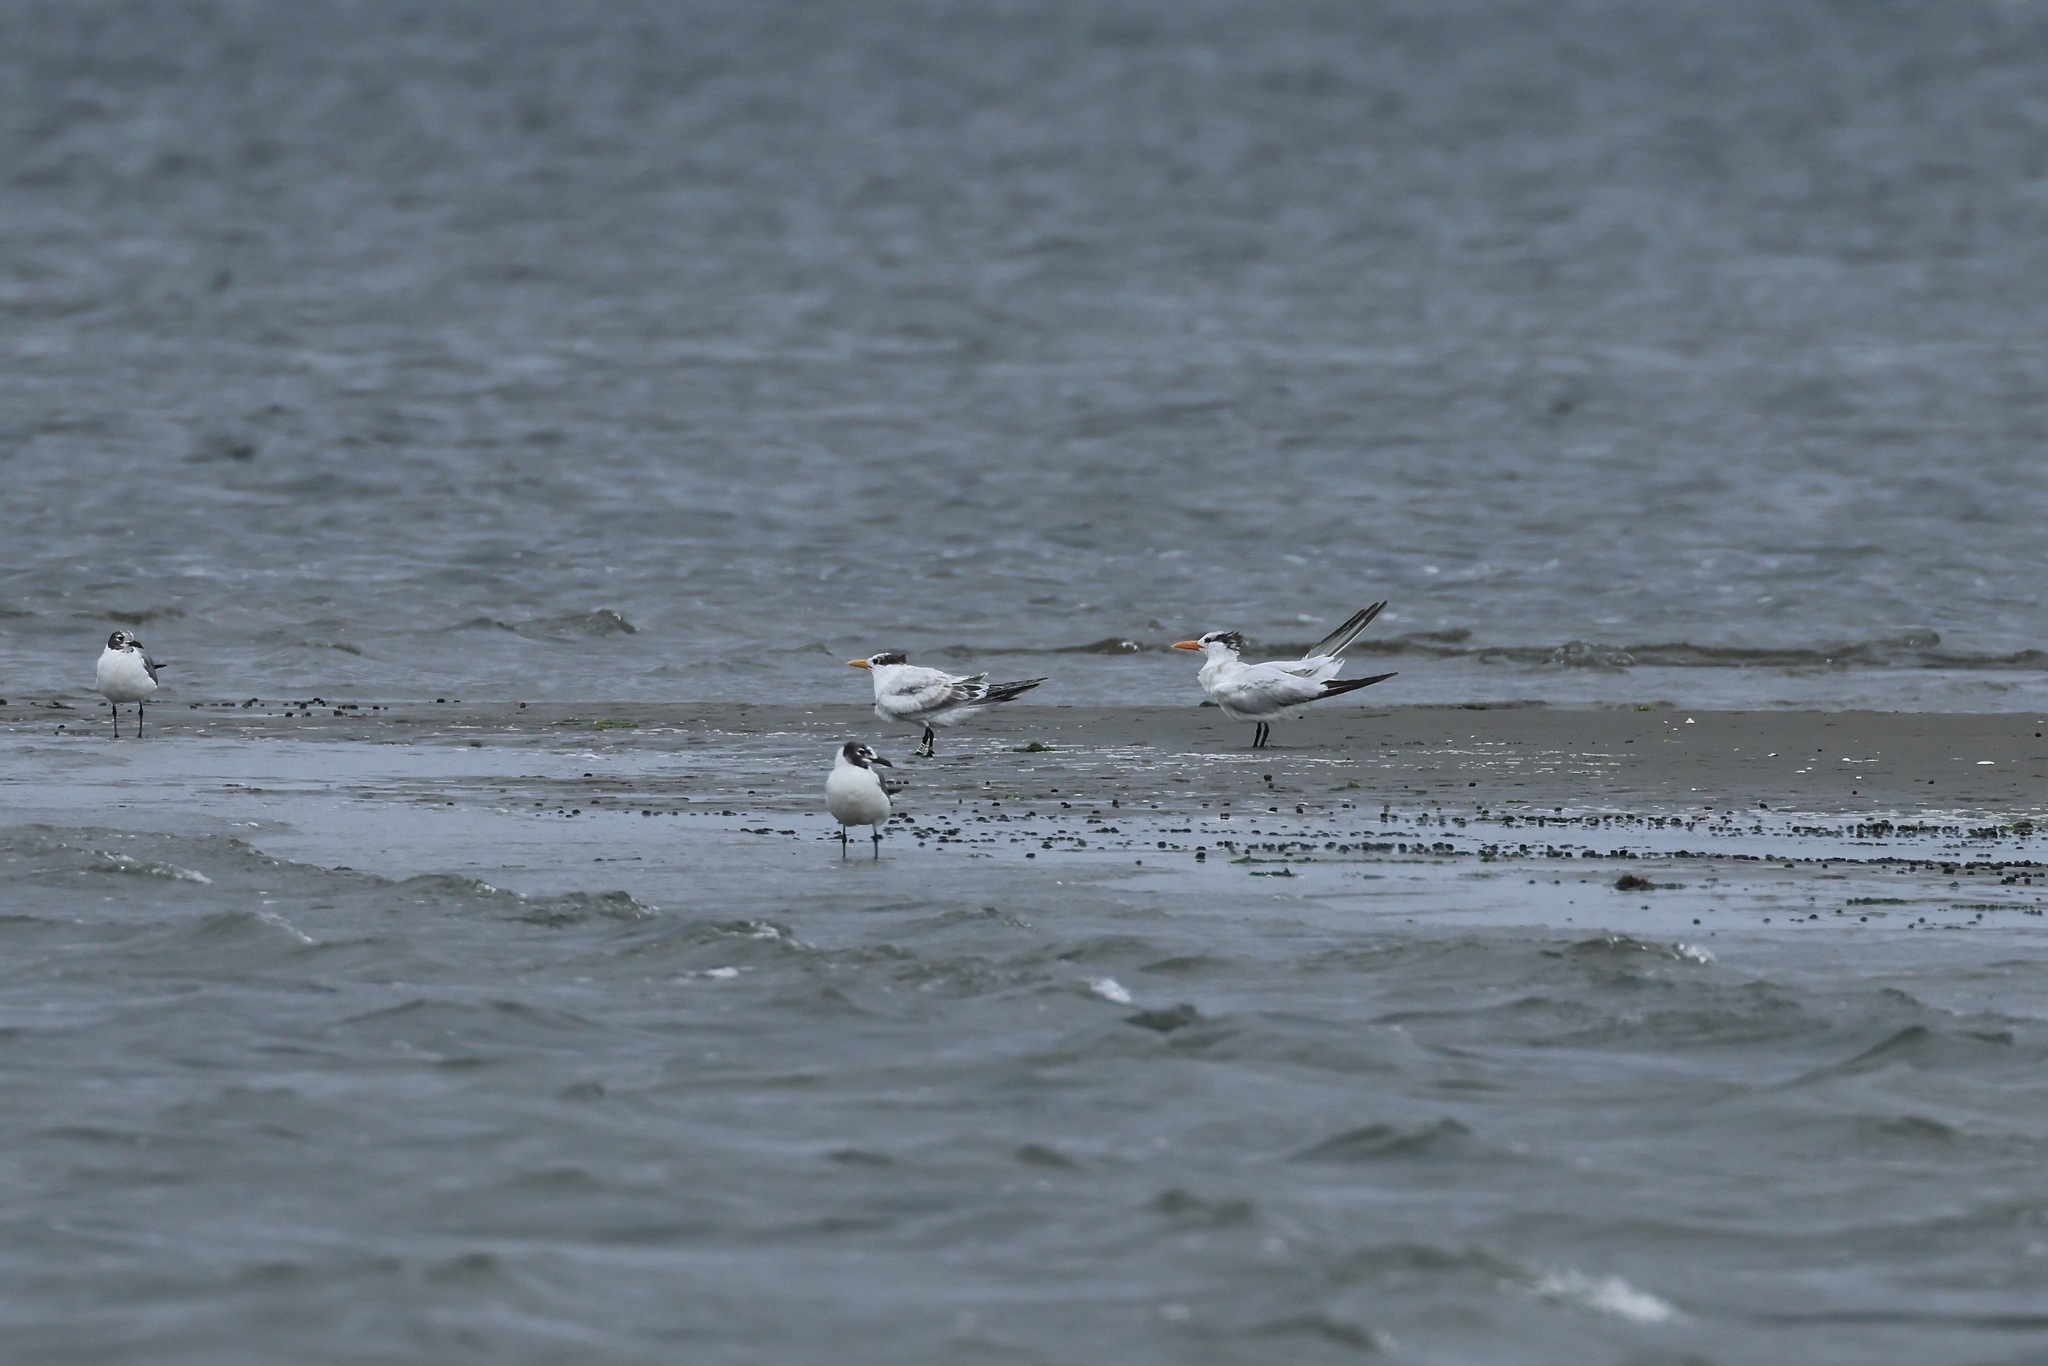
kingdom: Animalia
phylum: Chordata
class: Aves
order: Charadriiformes
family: Laridae
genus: Thalasseus
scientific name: Thalasseus maximus
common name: Royal tern
